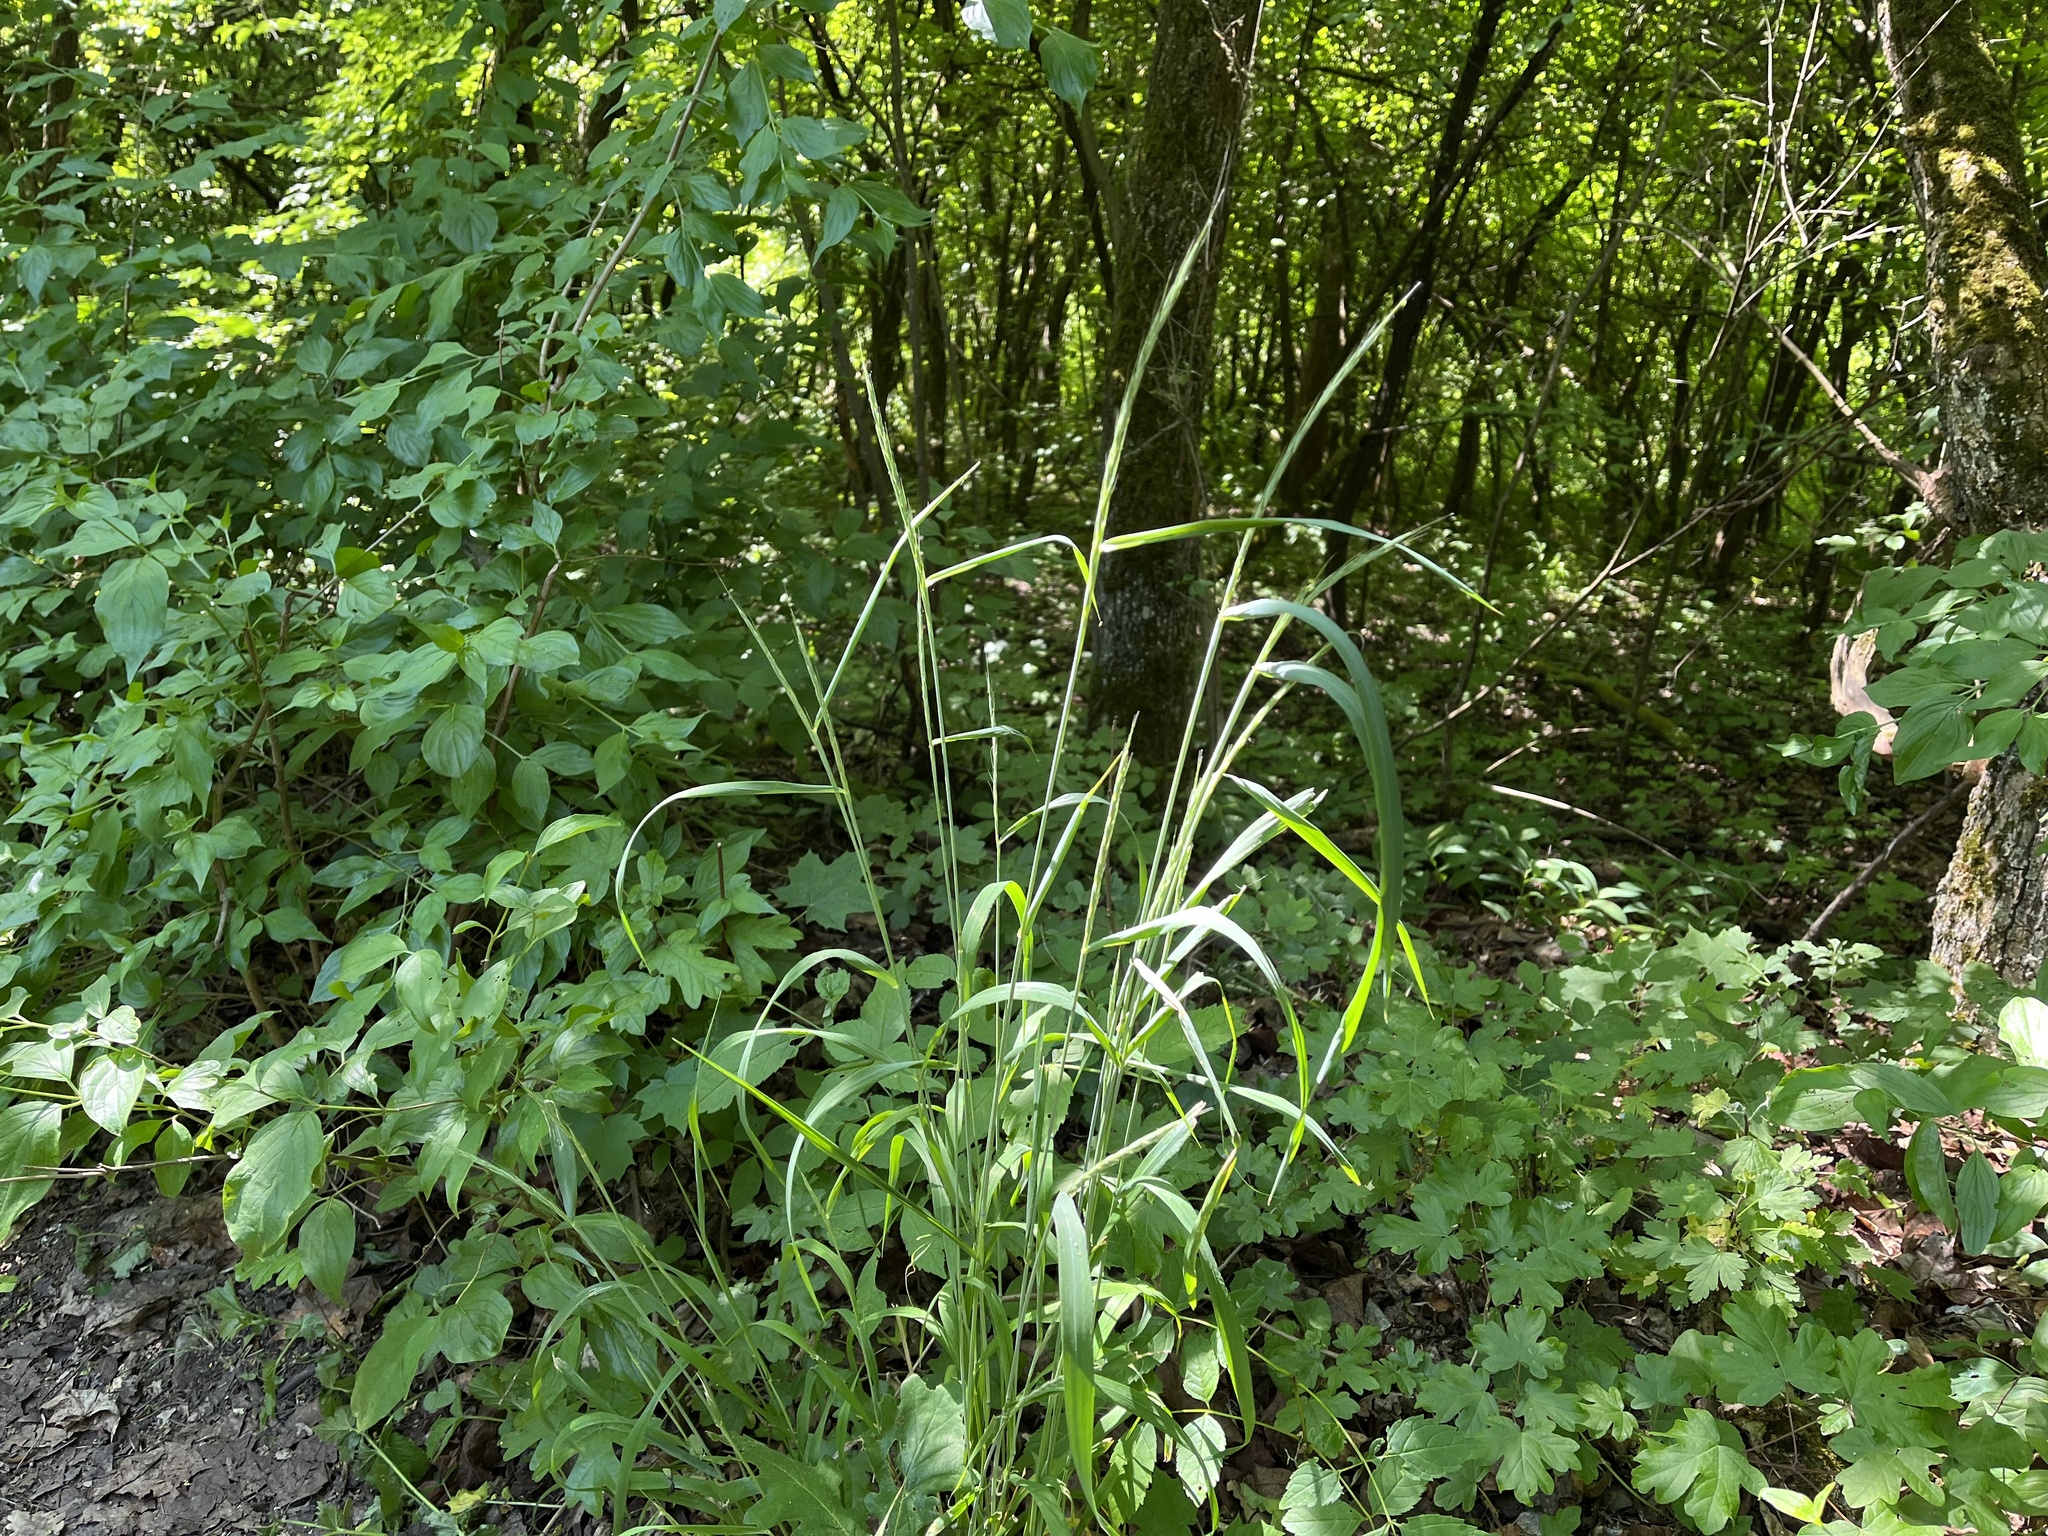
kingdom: Plantae
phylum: Tracheophyta
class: Liliopsida
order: Poales
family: Poaceae
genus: Elymus
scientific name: Elymus caninus
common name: Bearded couch
